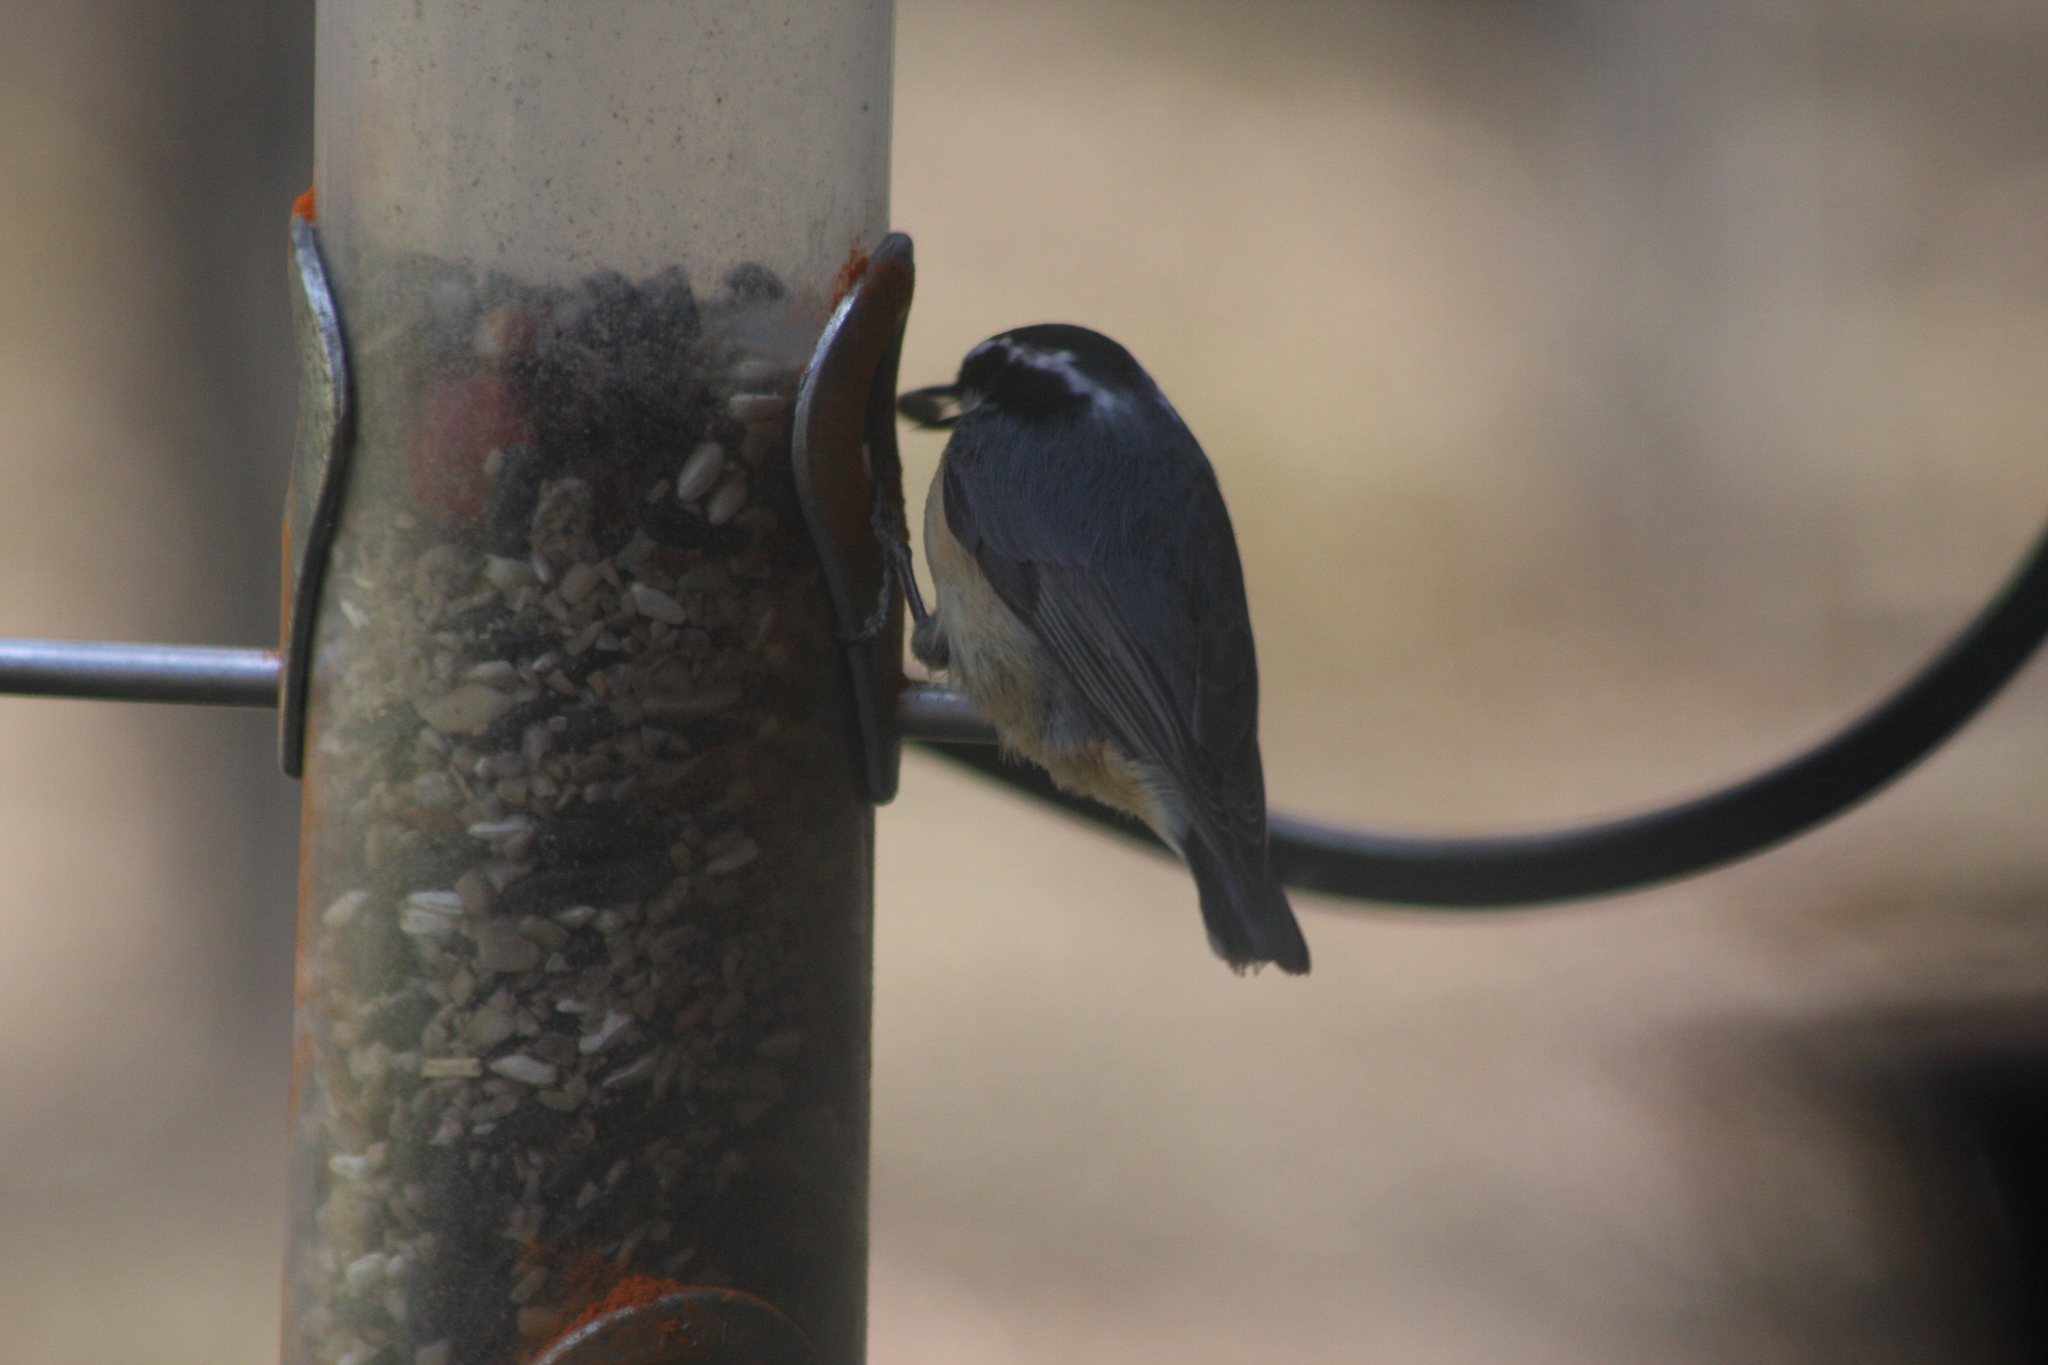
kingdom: Animalia
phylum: Chordata
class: Aves
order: Passeriformes
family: Sittidae
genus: Sitta
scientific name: Sitta canadensis
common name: Red-breasted nuthatch
